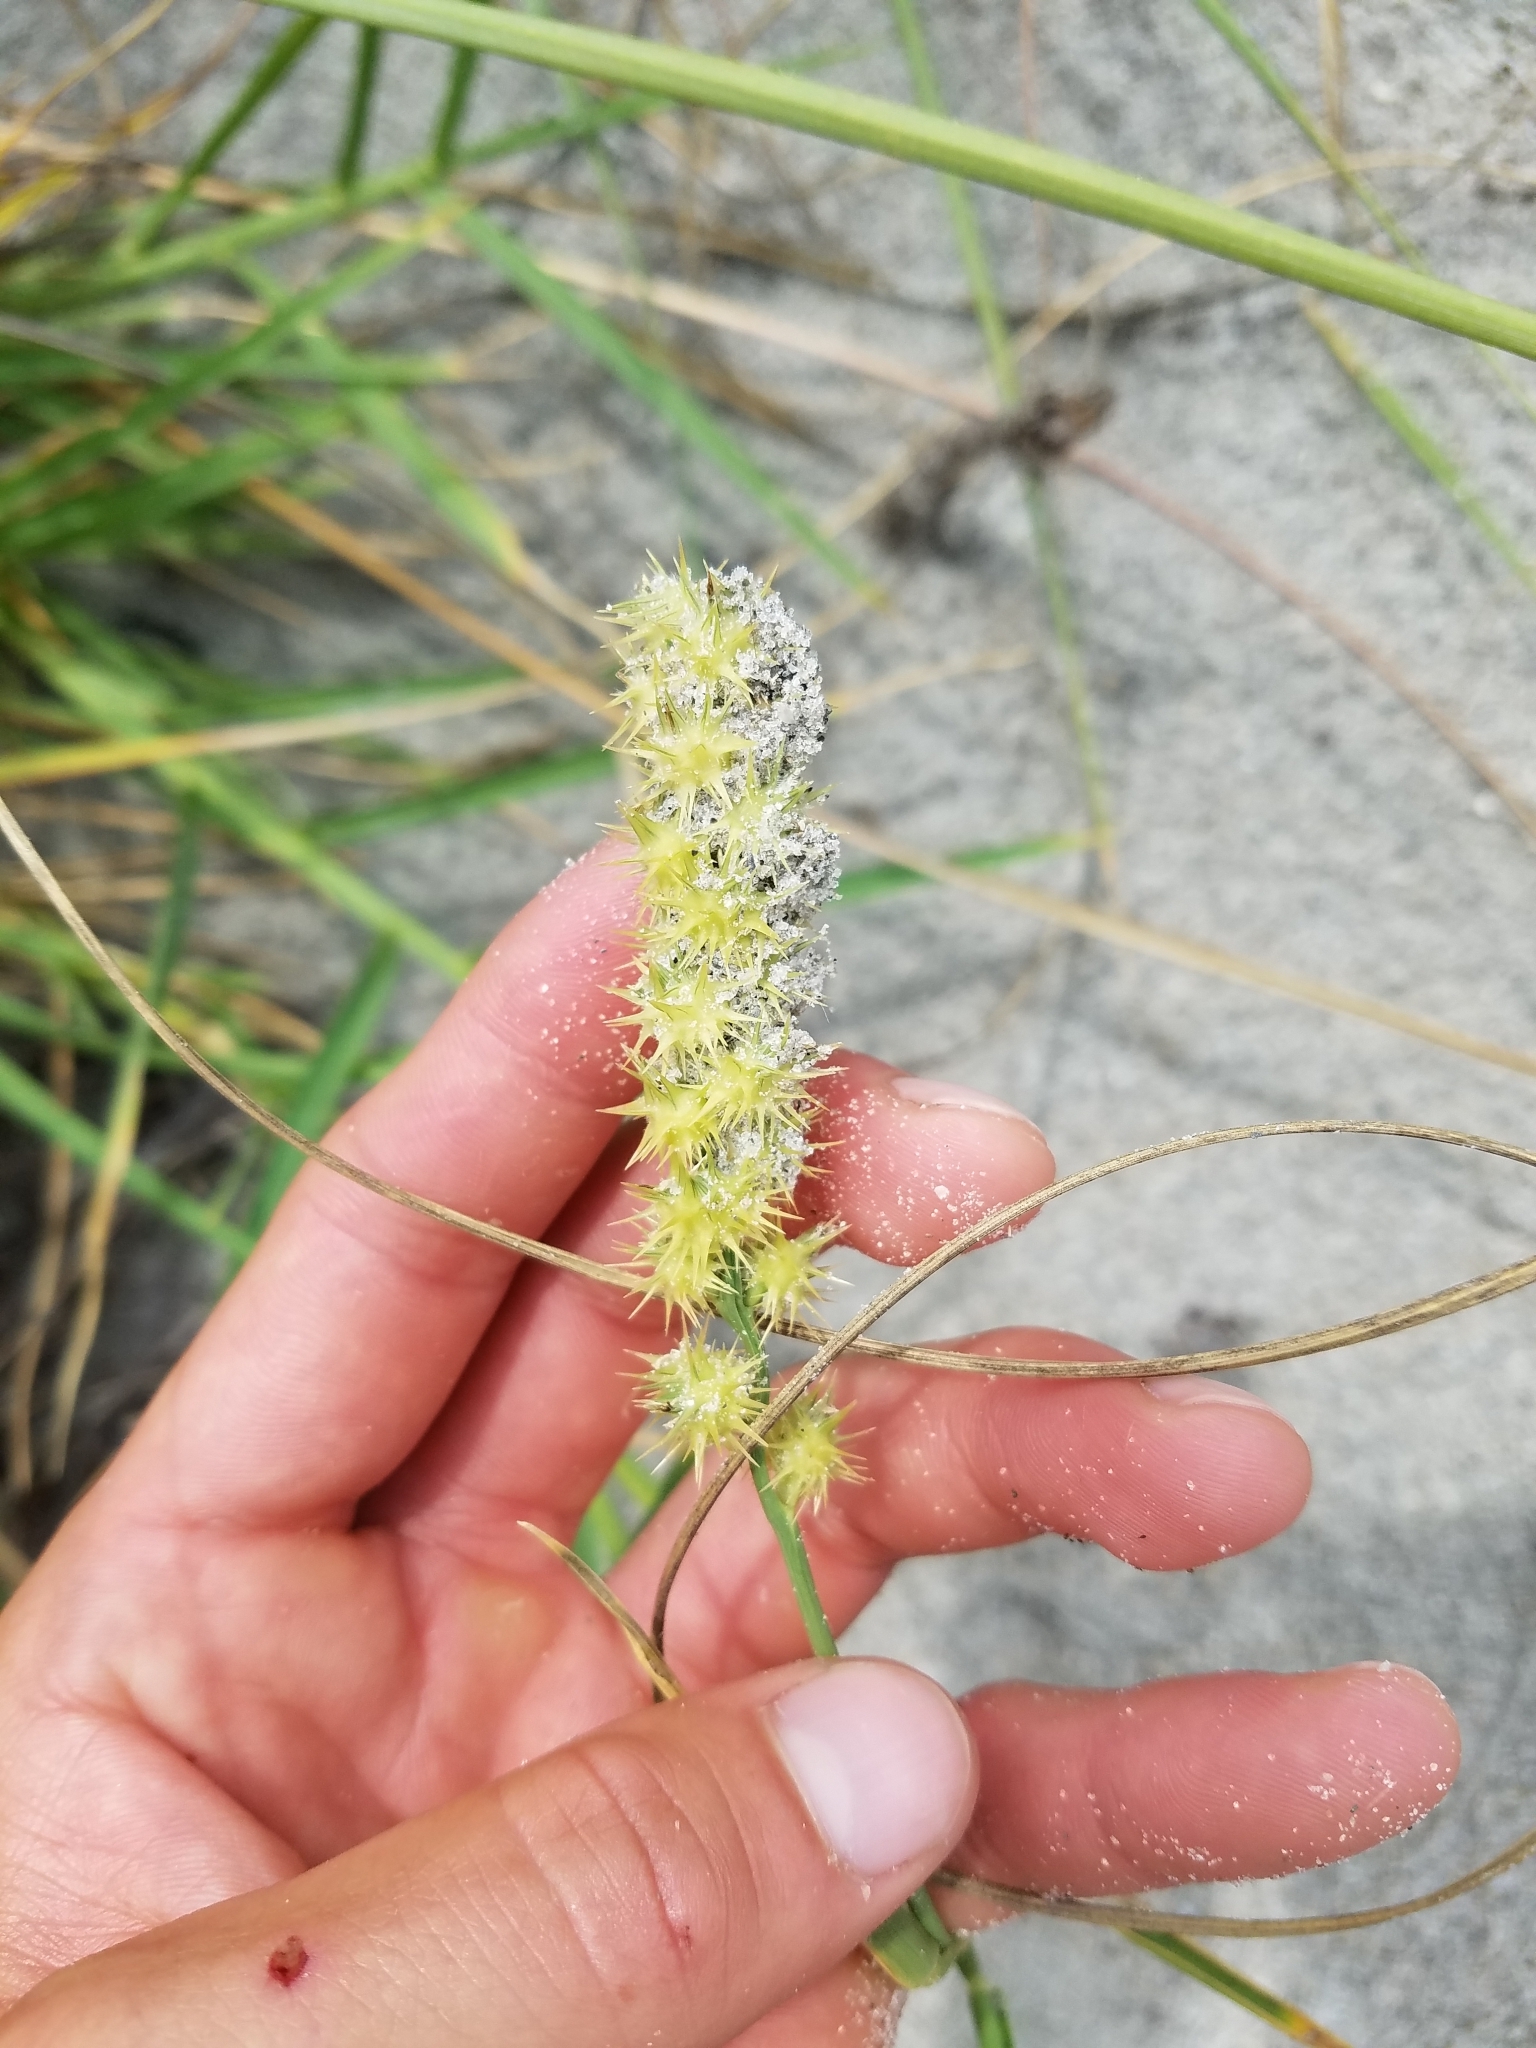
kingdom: Plantae
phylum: Tracheophyta
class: Liliopsida
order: Poales
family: Poaceae
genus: Cenchrus
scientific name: Cenchrus spinifex
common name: Coast sandbur
